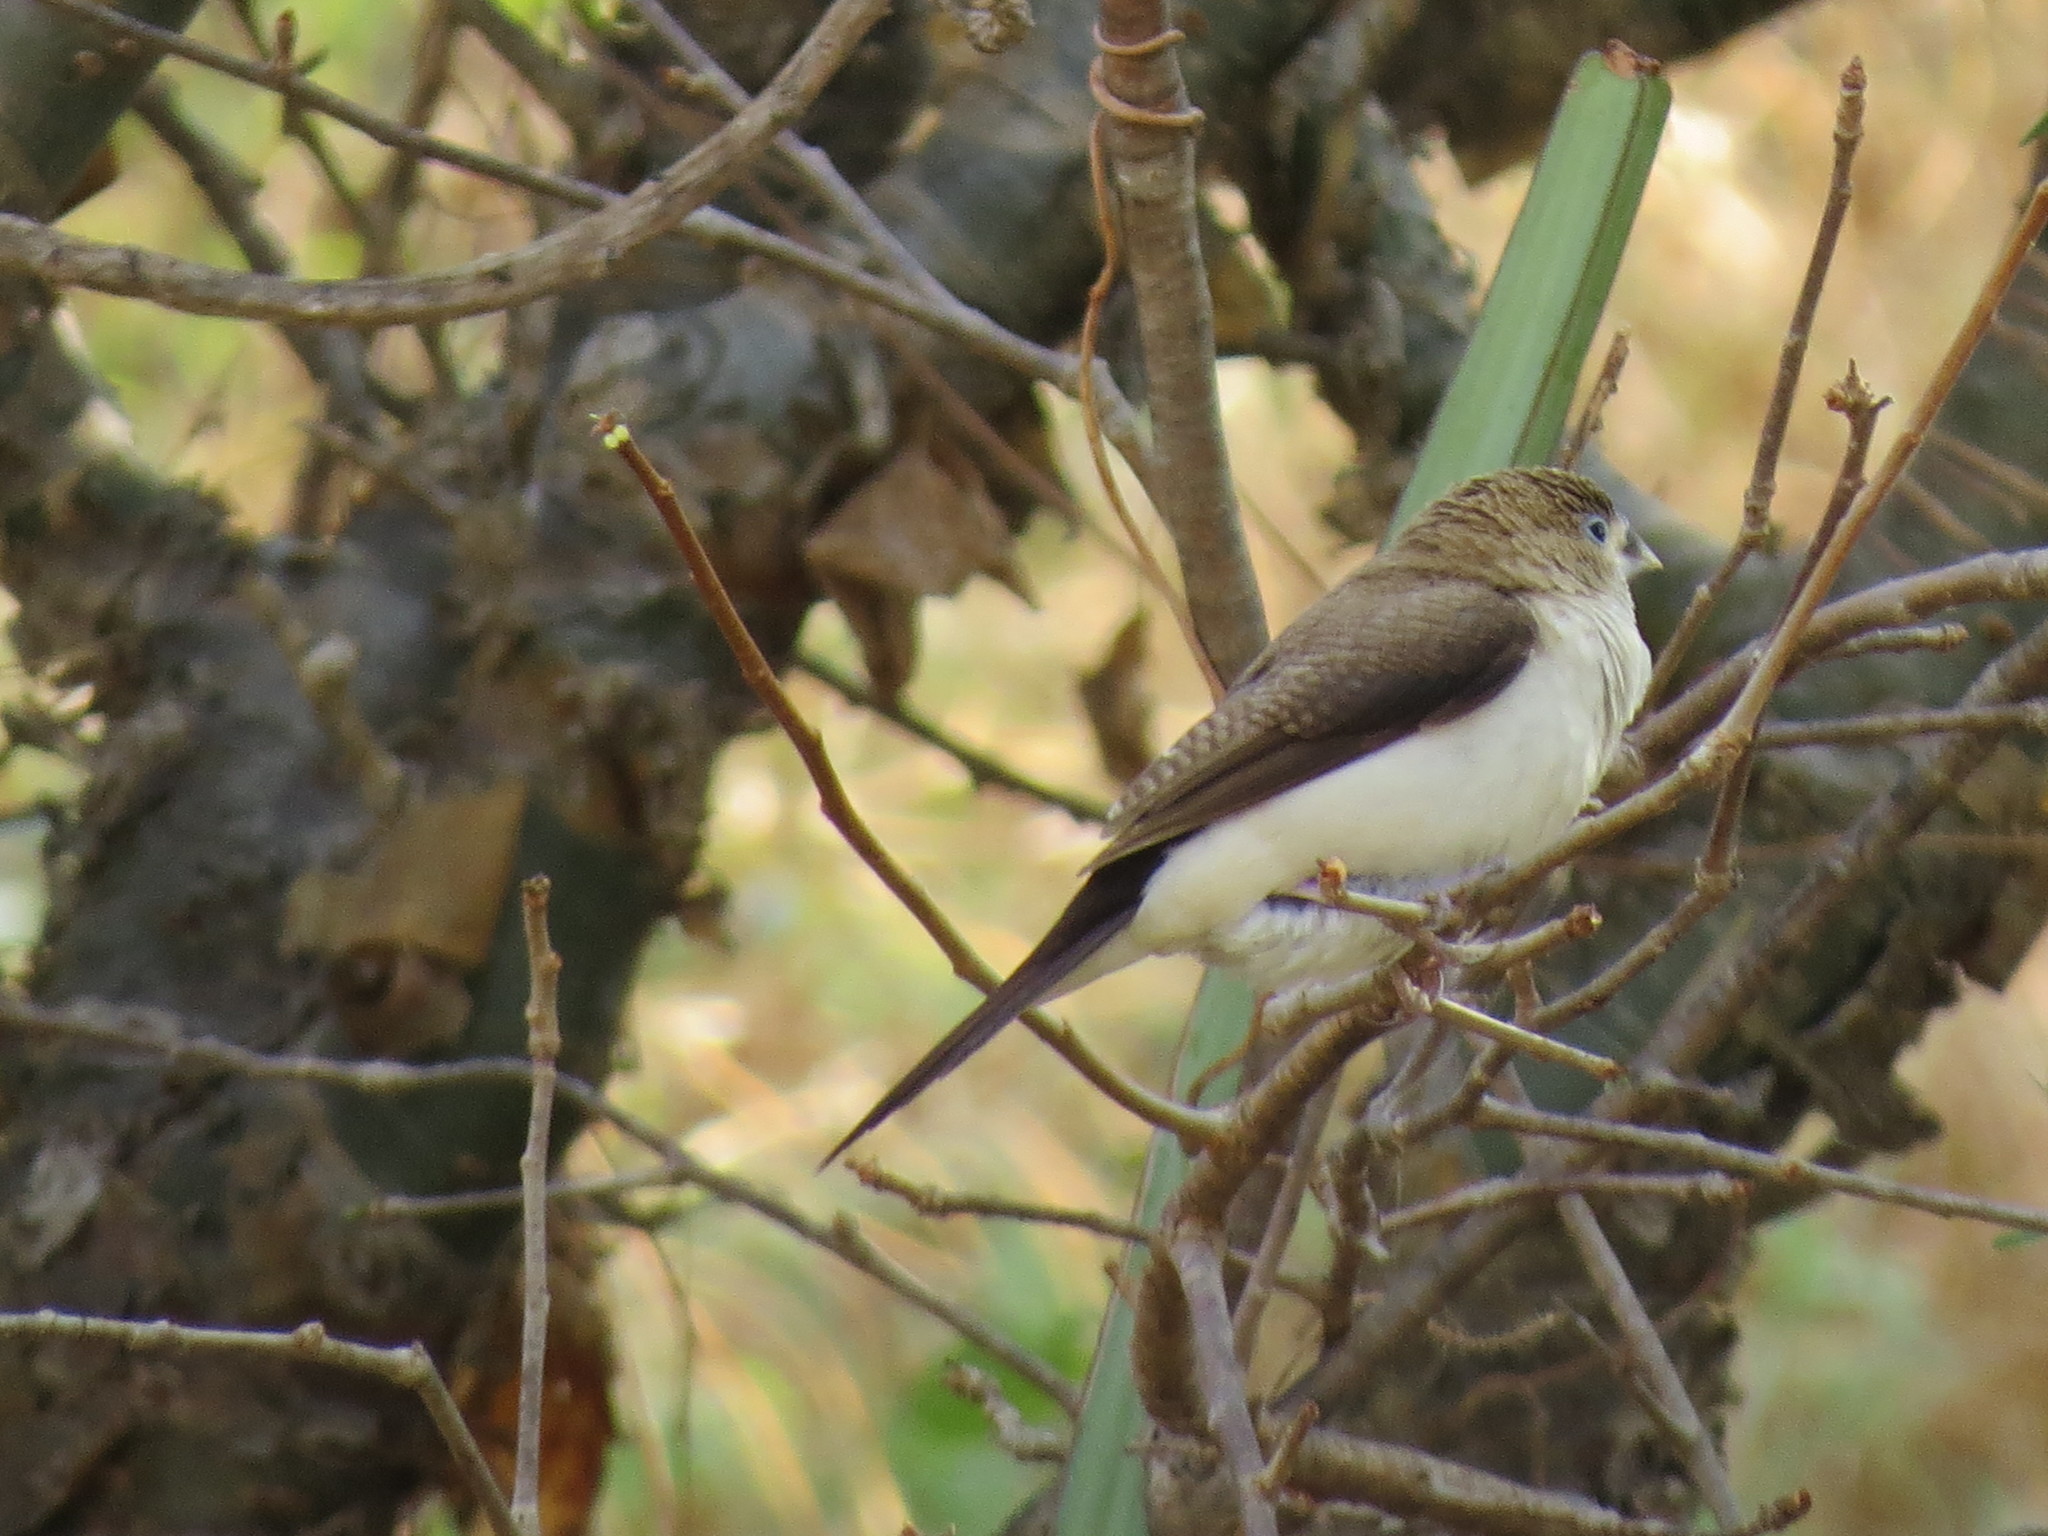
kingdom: Animalia
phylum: Chordata
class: Aves
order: Passeriformes
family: Estrildidae
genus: Euodice
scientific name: Euodice cantans
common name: African silverbill
